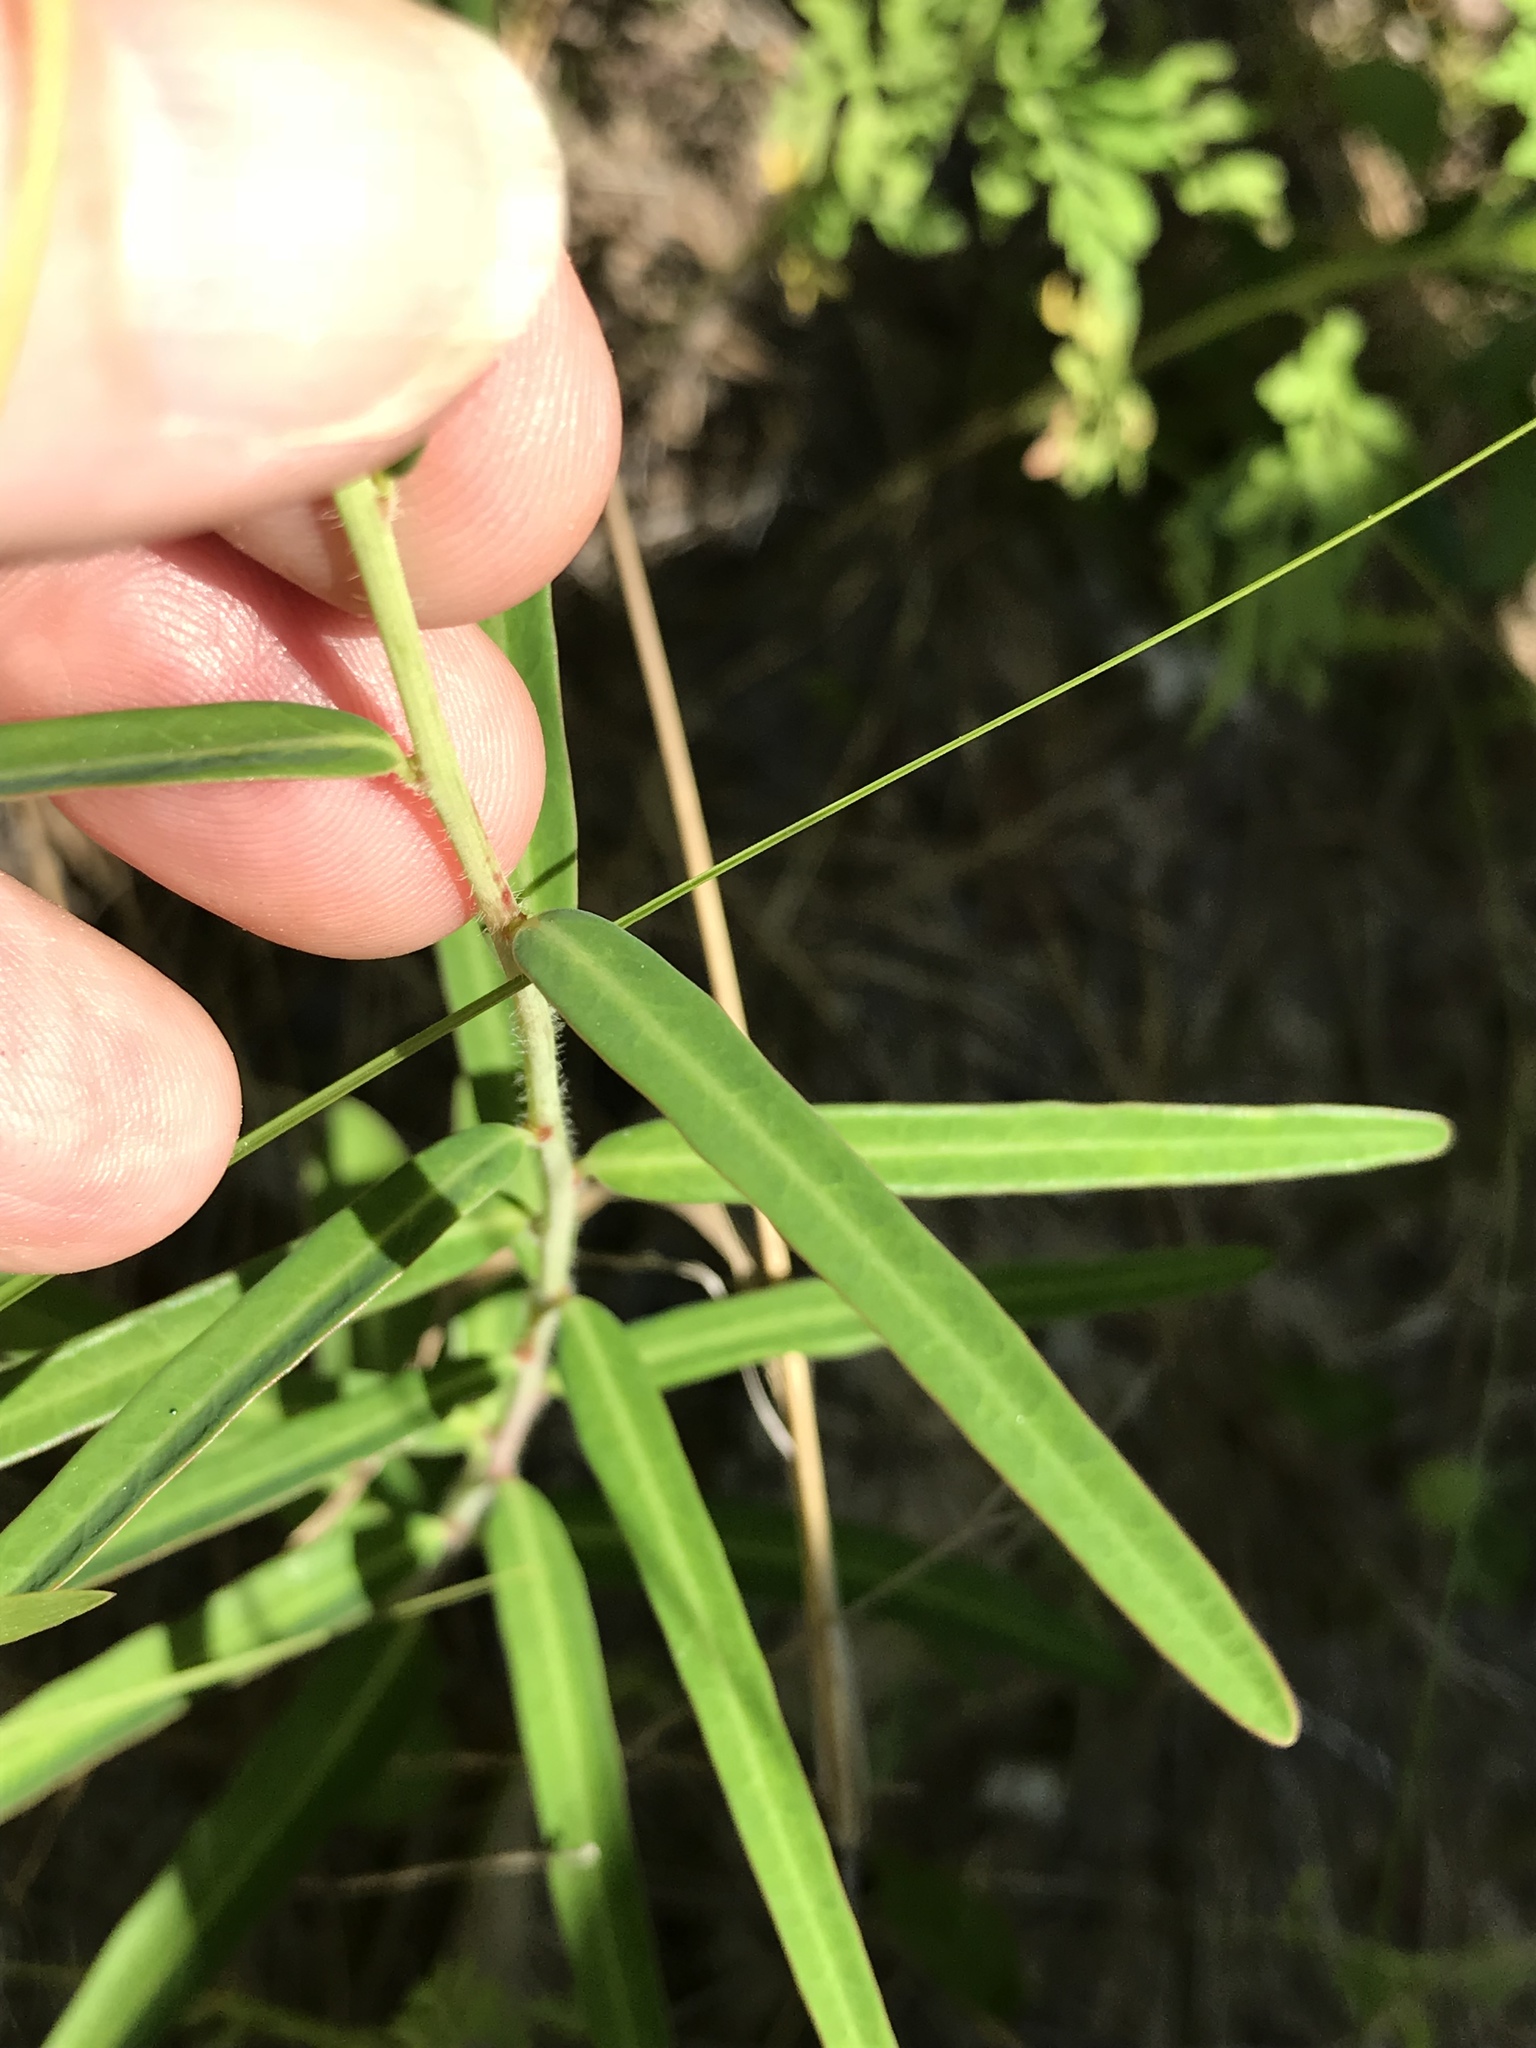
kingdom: Plantae
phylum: Tracheophyta
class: Magnoliopsida
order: Malpighiales
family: Euphorbiaceae
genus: Euphorbia
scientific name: Euphorbia corollata
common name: Flowering spurge
